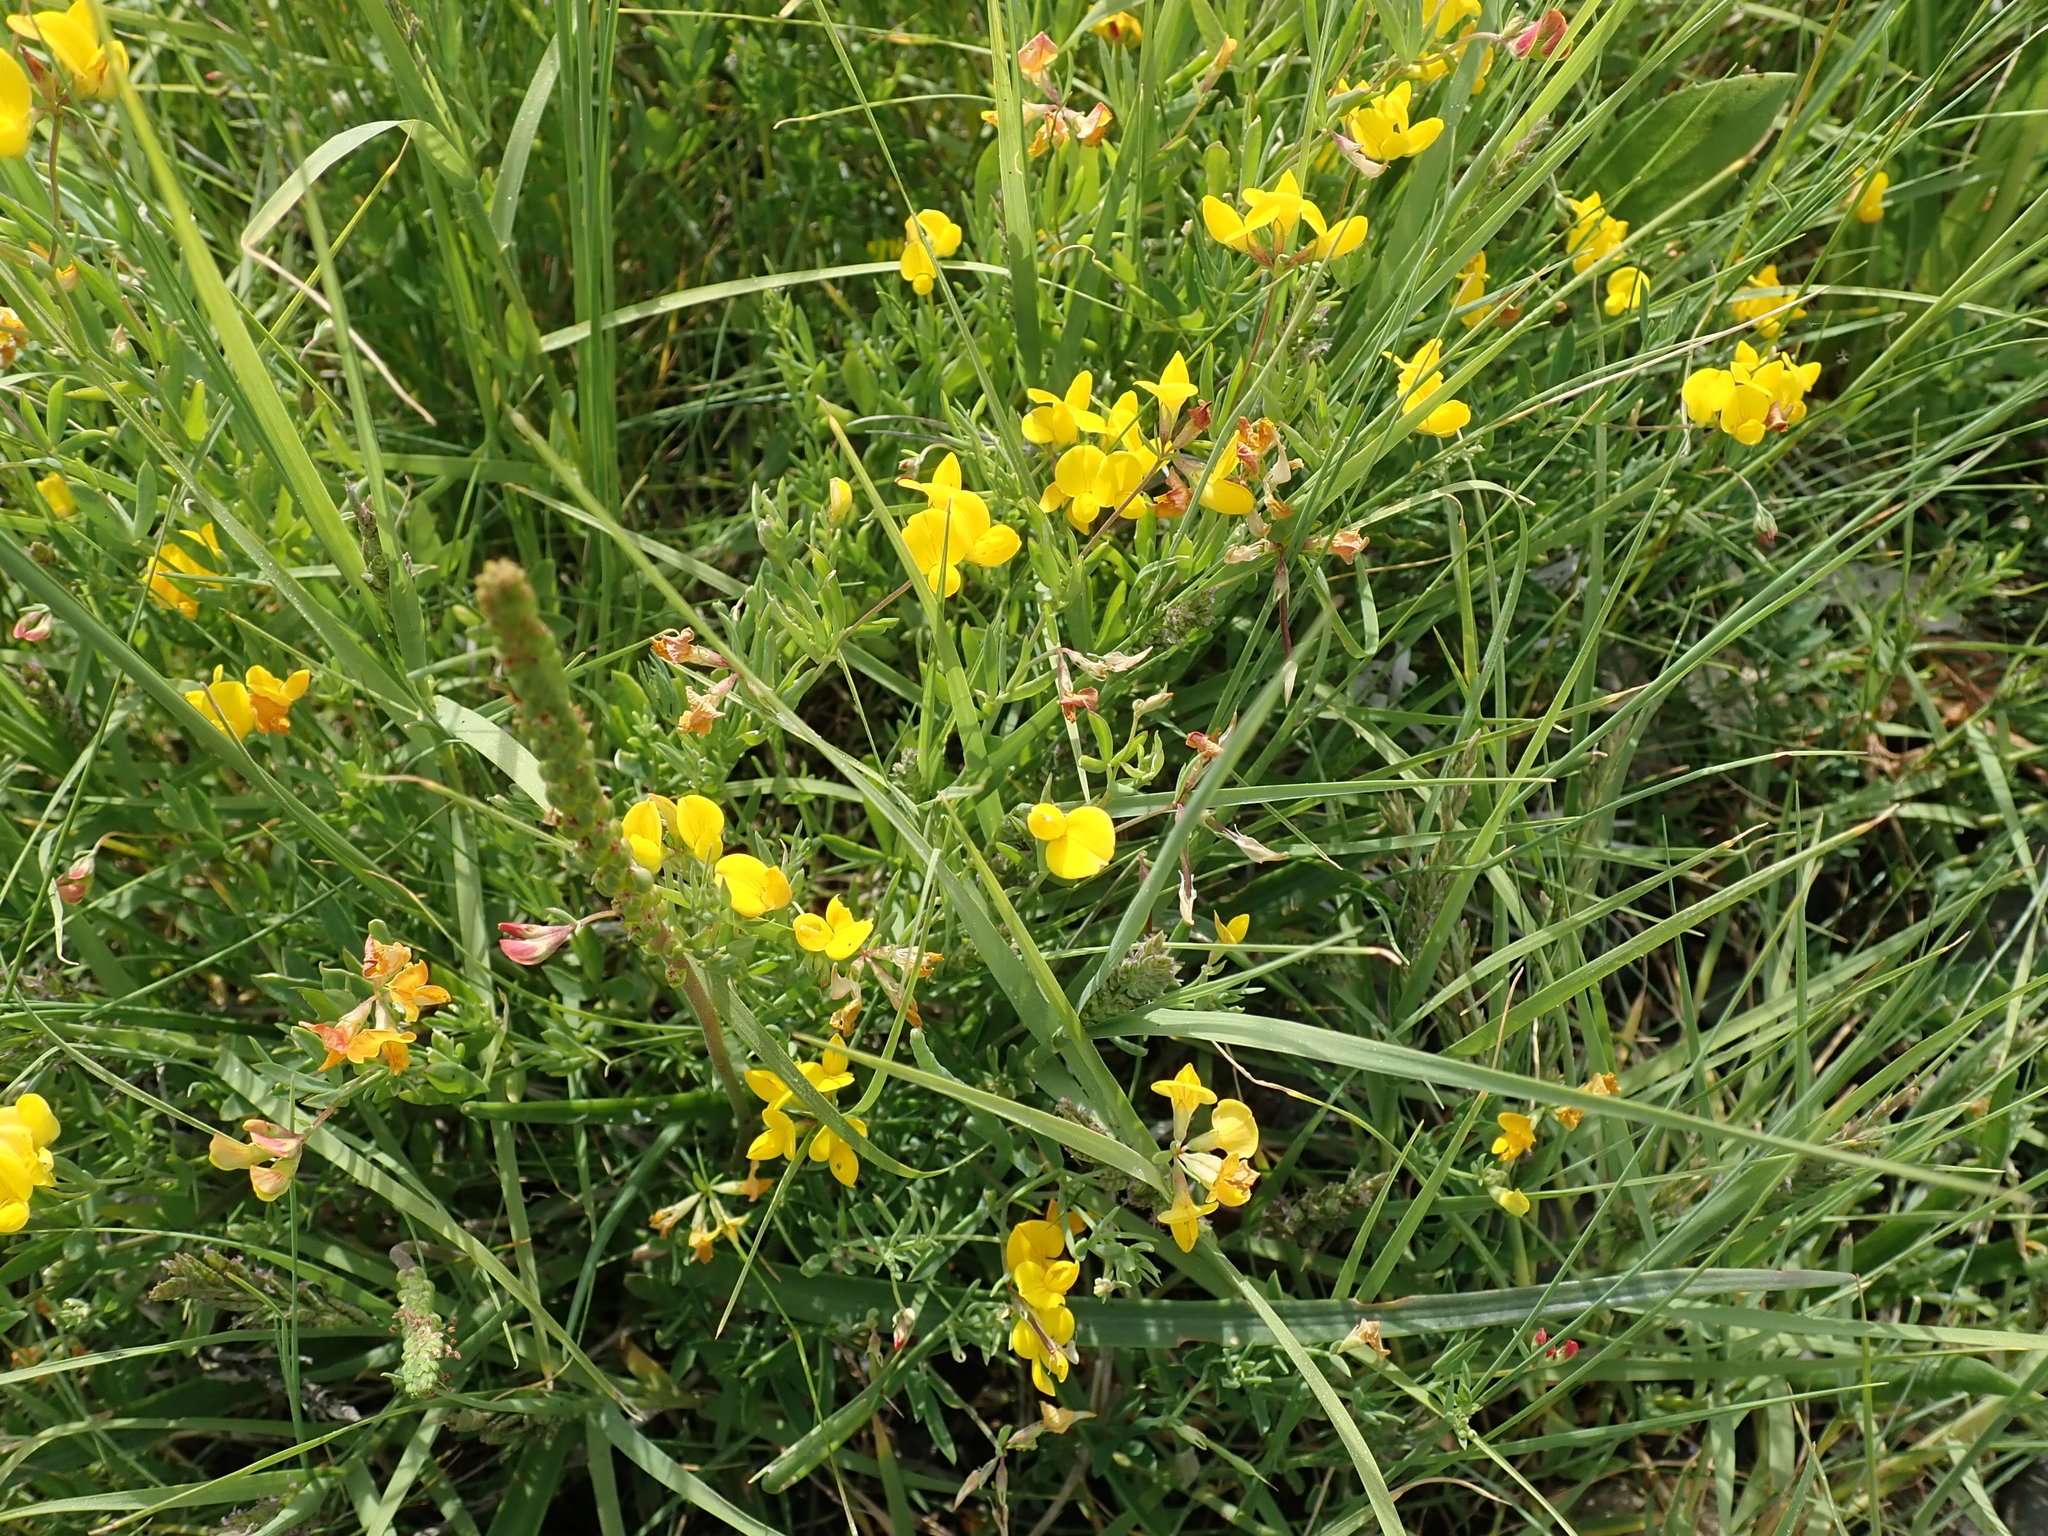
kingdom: Plantae
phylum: Tracheophyta
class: Magnoliopsida
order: Fabales
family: Fabaceae
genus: Lotus
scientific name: Lotus corniculatus
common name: Common bird's-foot-trefoil
